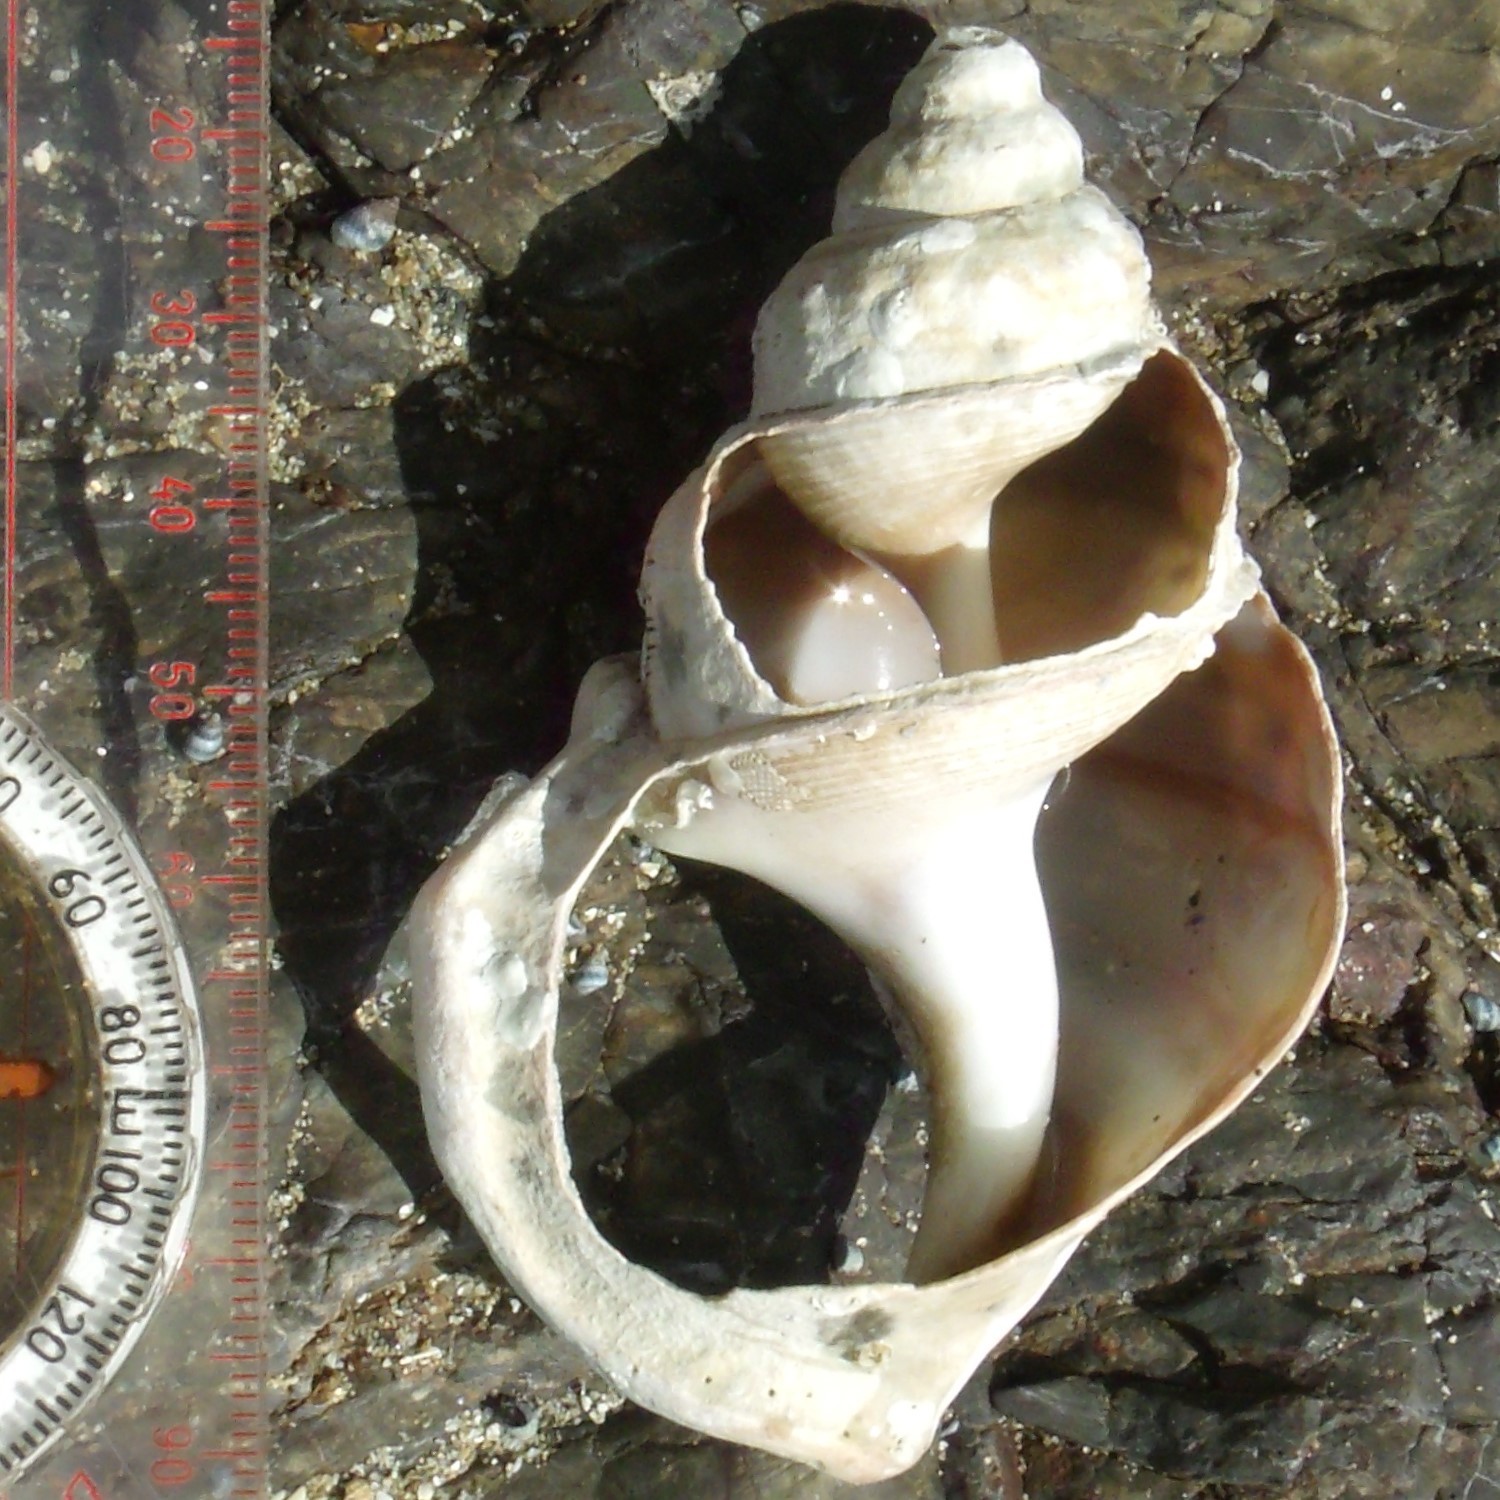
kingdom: Animalia
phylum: Mollusca
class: Gastropoda
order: Littorinimorpha
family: Struthiolariidae
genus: Struthiolaria
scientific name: Struthiolaria papulosa
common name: Large ostrich foot
